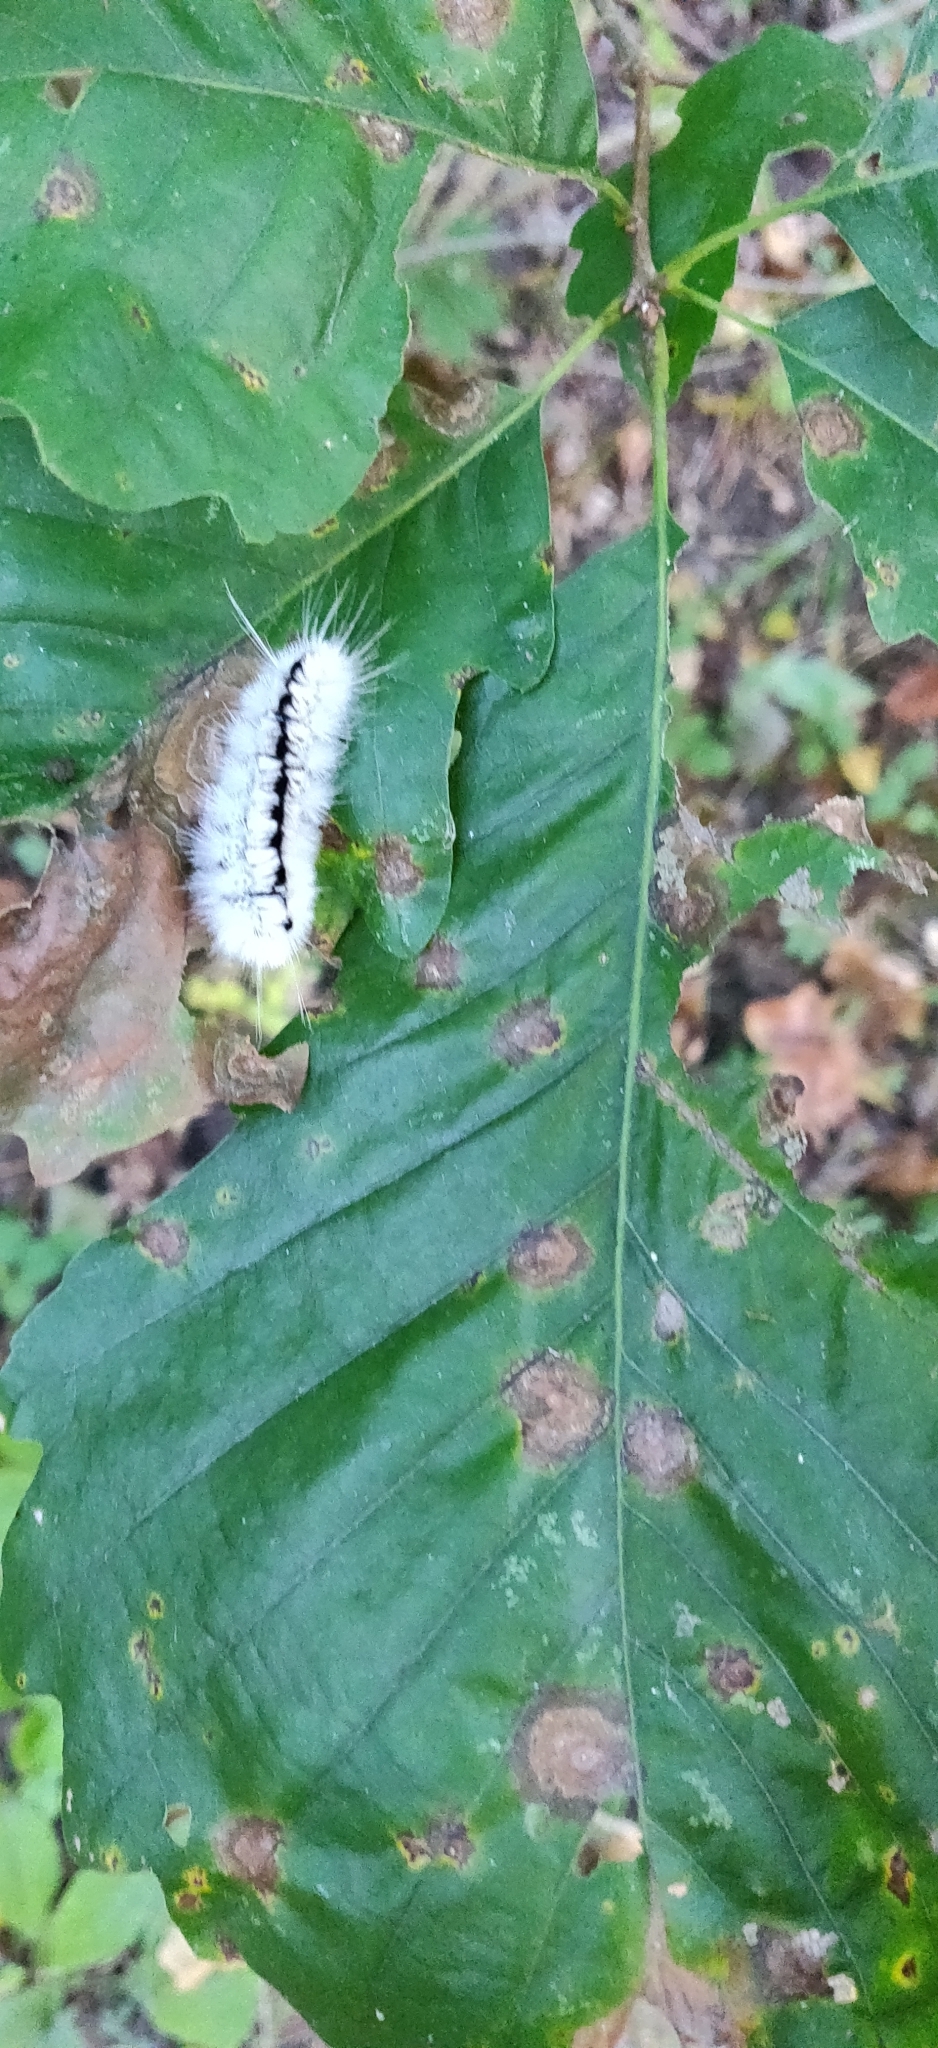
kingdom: Animalia
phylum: Arthropoda
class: Insecta
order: Lepidoptera
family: Erebidae
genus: Lophocampa
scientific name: Lophocampa caryae
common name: Hickory tussock moth
